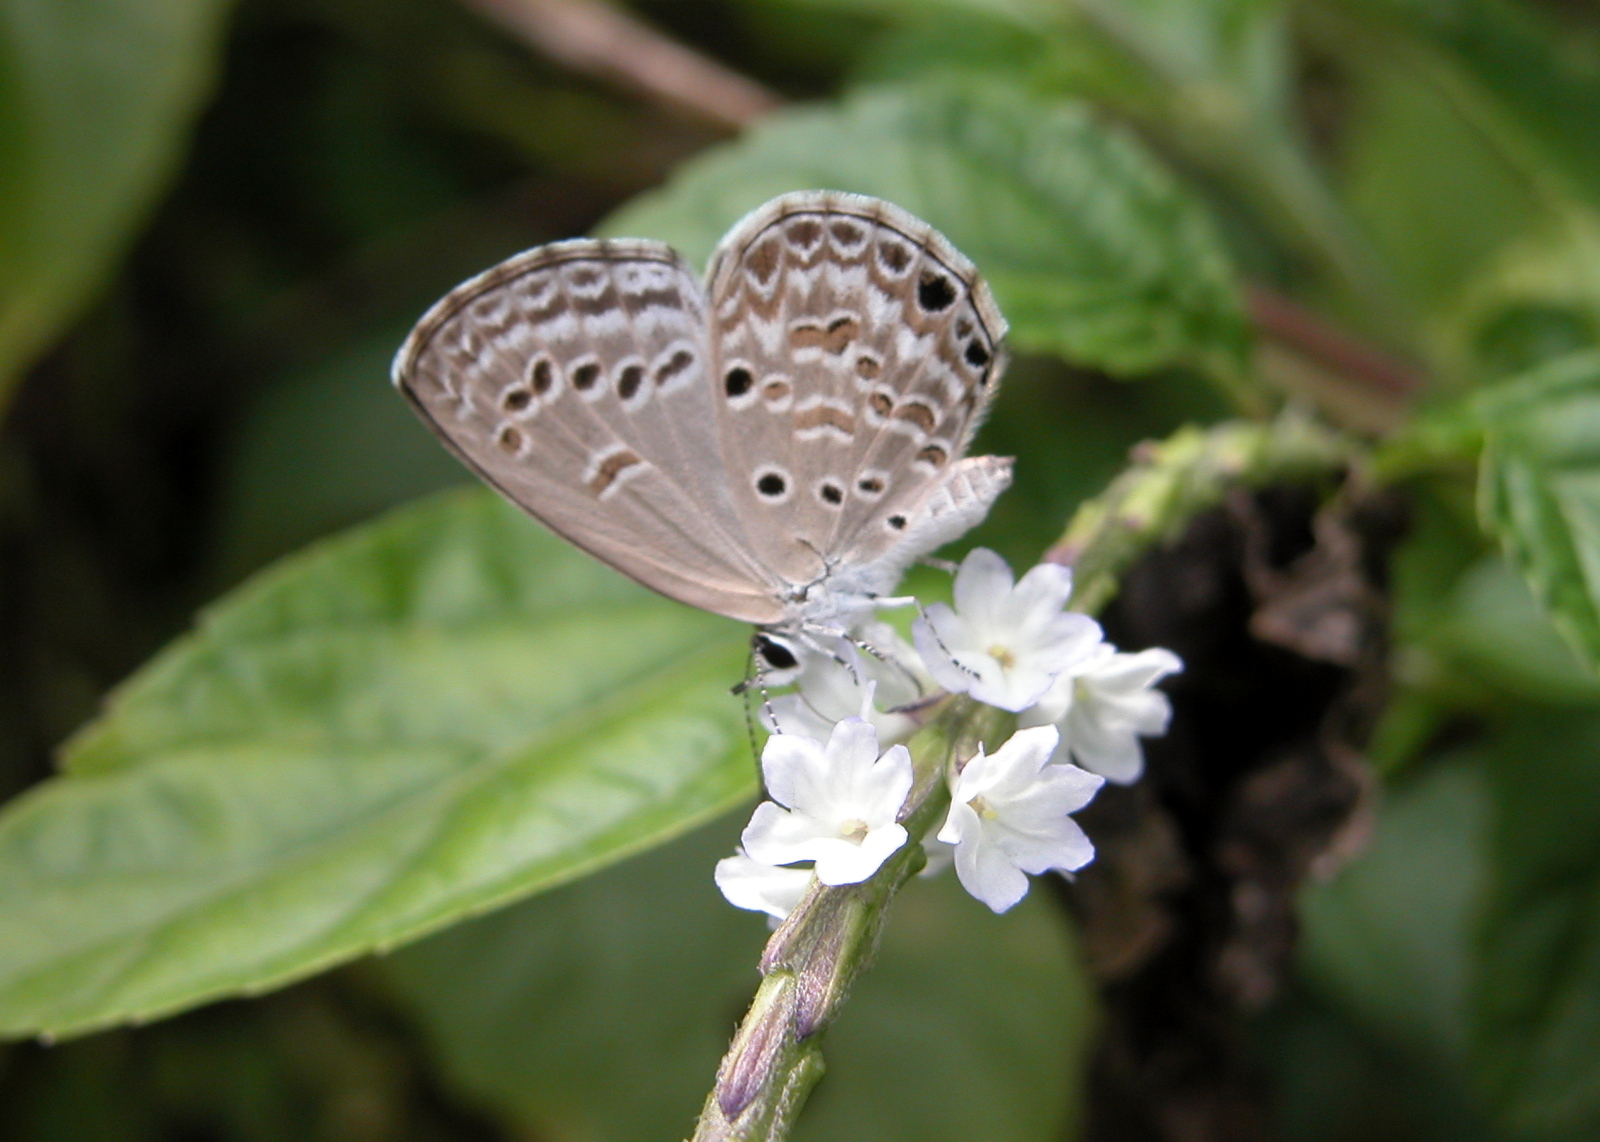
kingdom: Animalia
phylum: Arthropoda
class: Insecta
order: Lepidoptera
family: Lycaenidae
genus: Chilades
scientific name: Chilades laius
